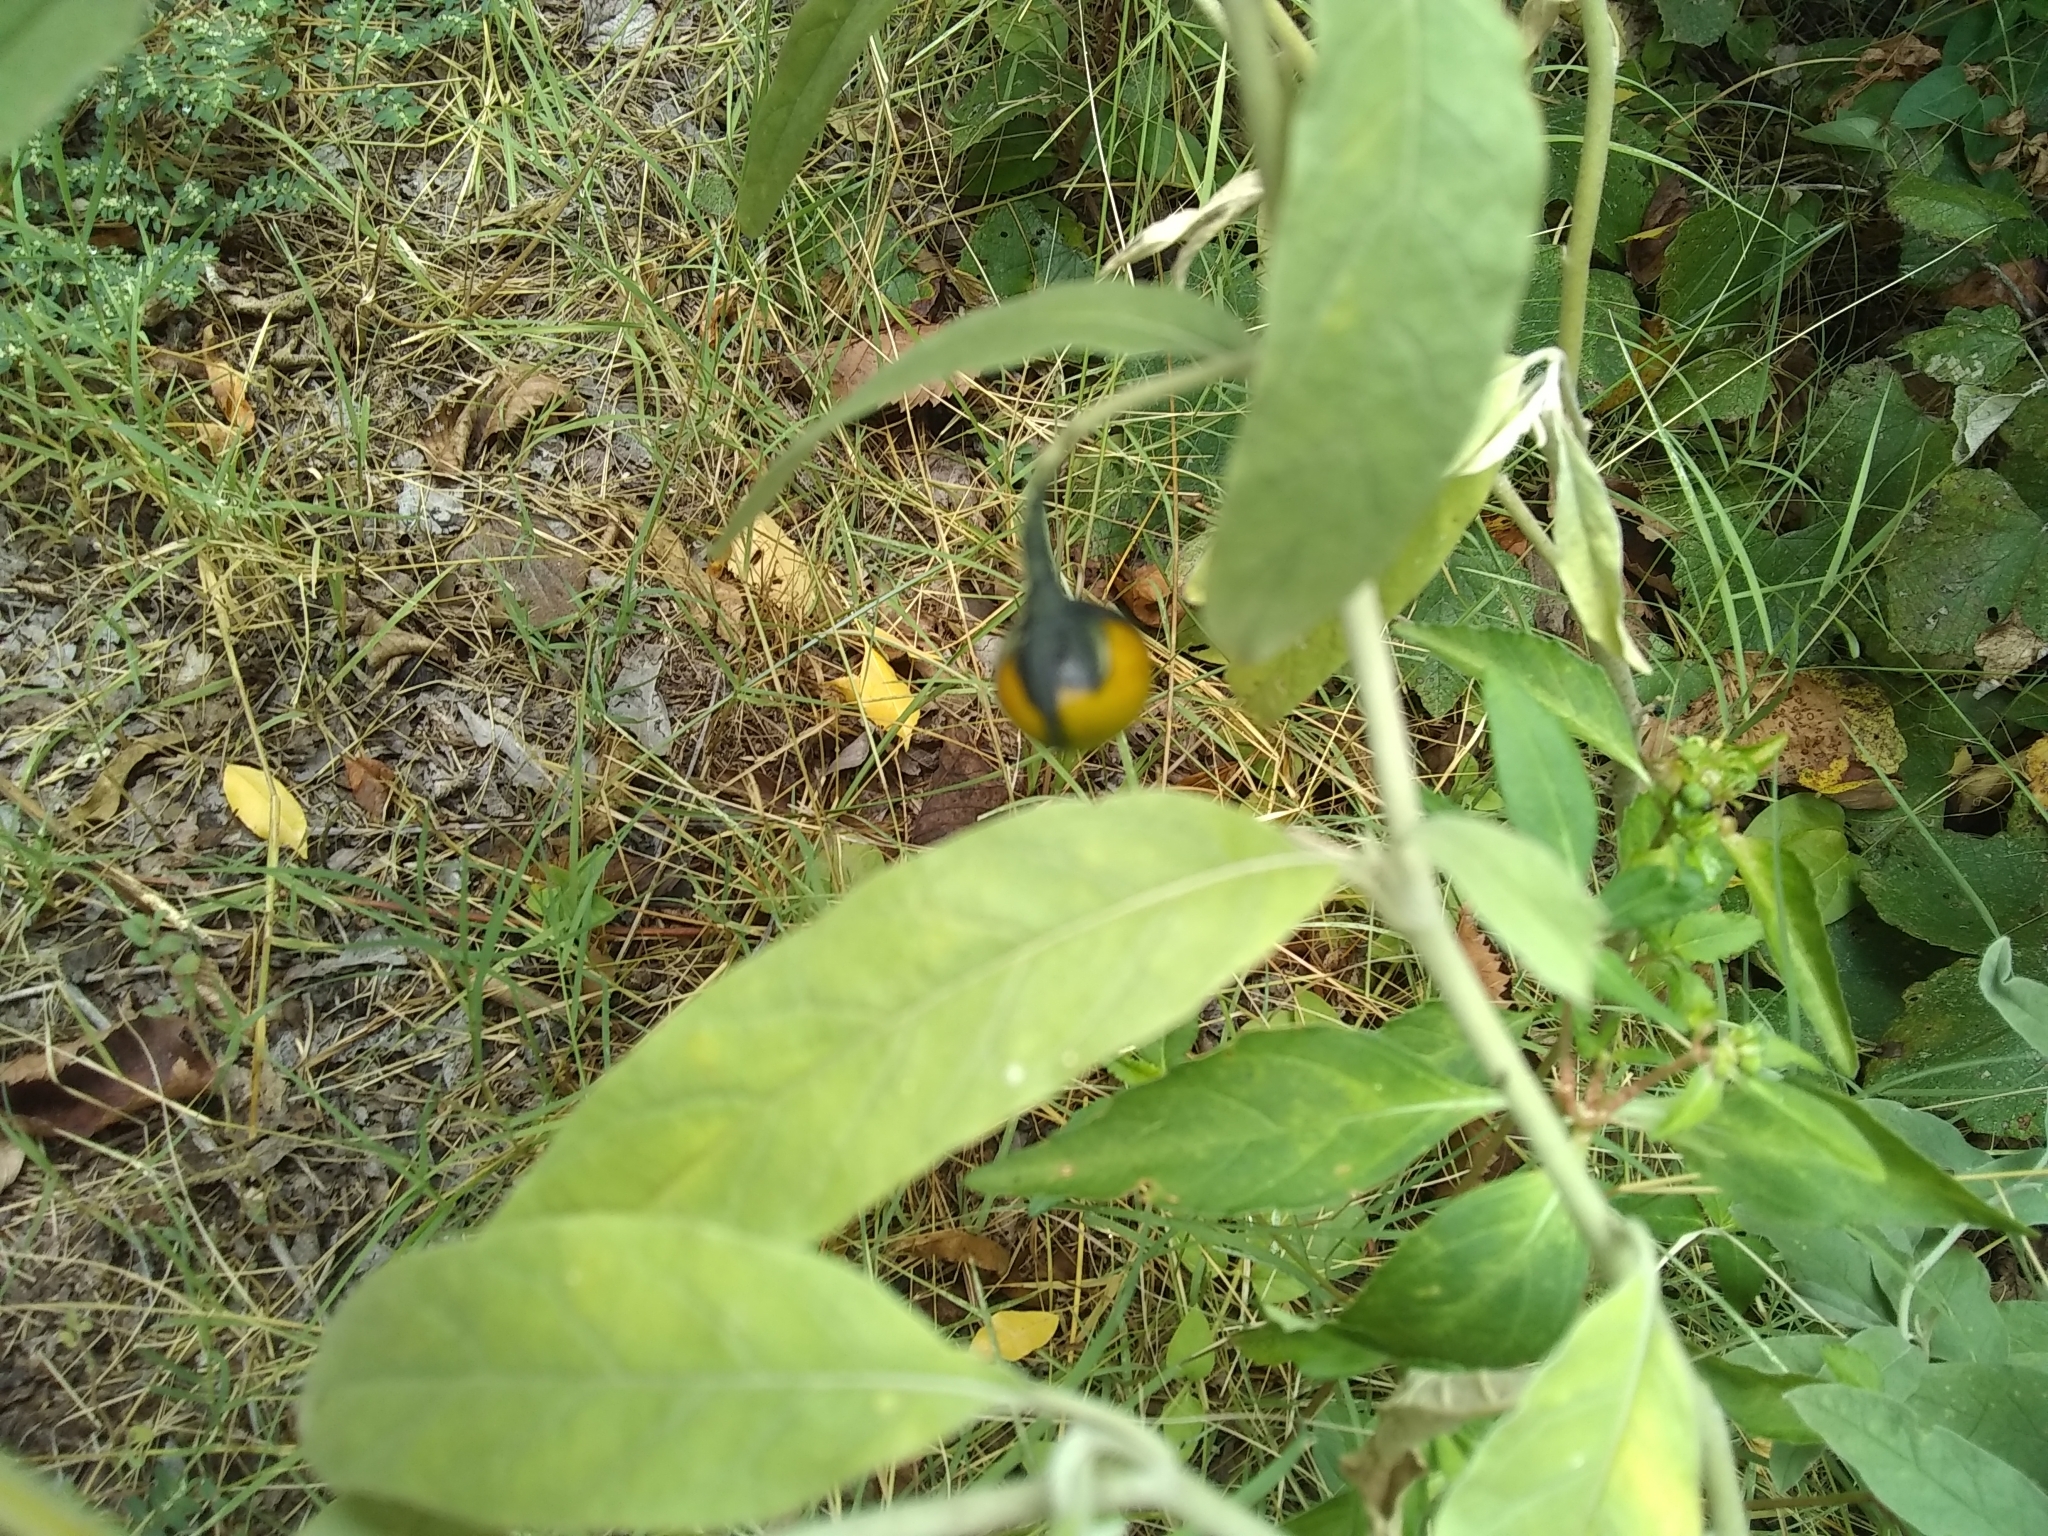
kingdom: Plantae
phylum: Tracheophyta
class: Magnoliopsida
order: Solanales
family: Solanaceae
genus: Solanum
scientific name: Solanum elaeagnifolium
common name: Silverleaf nightshade
